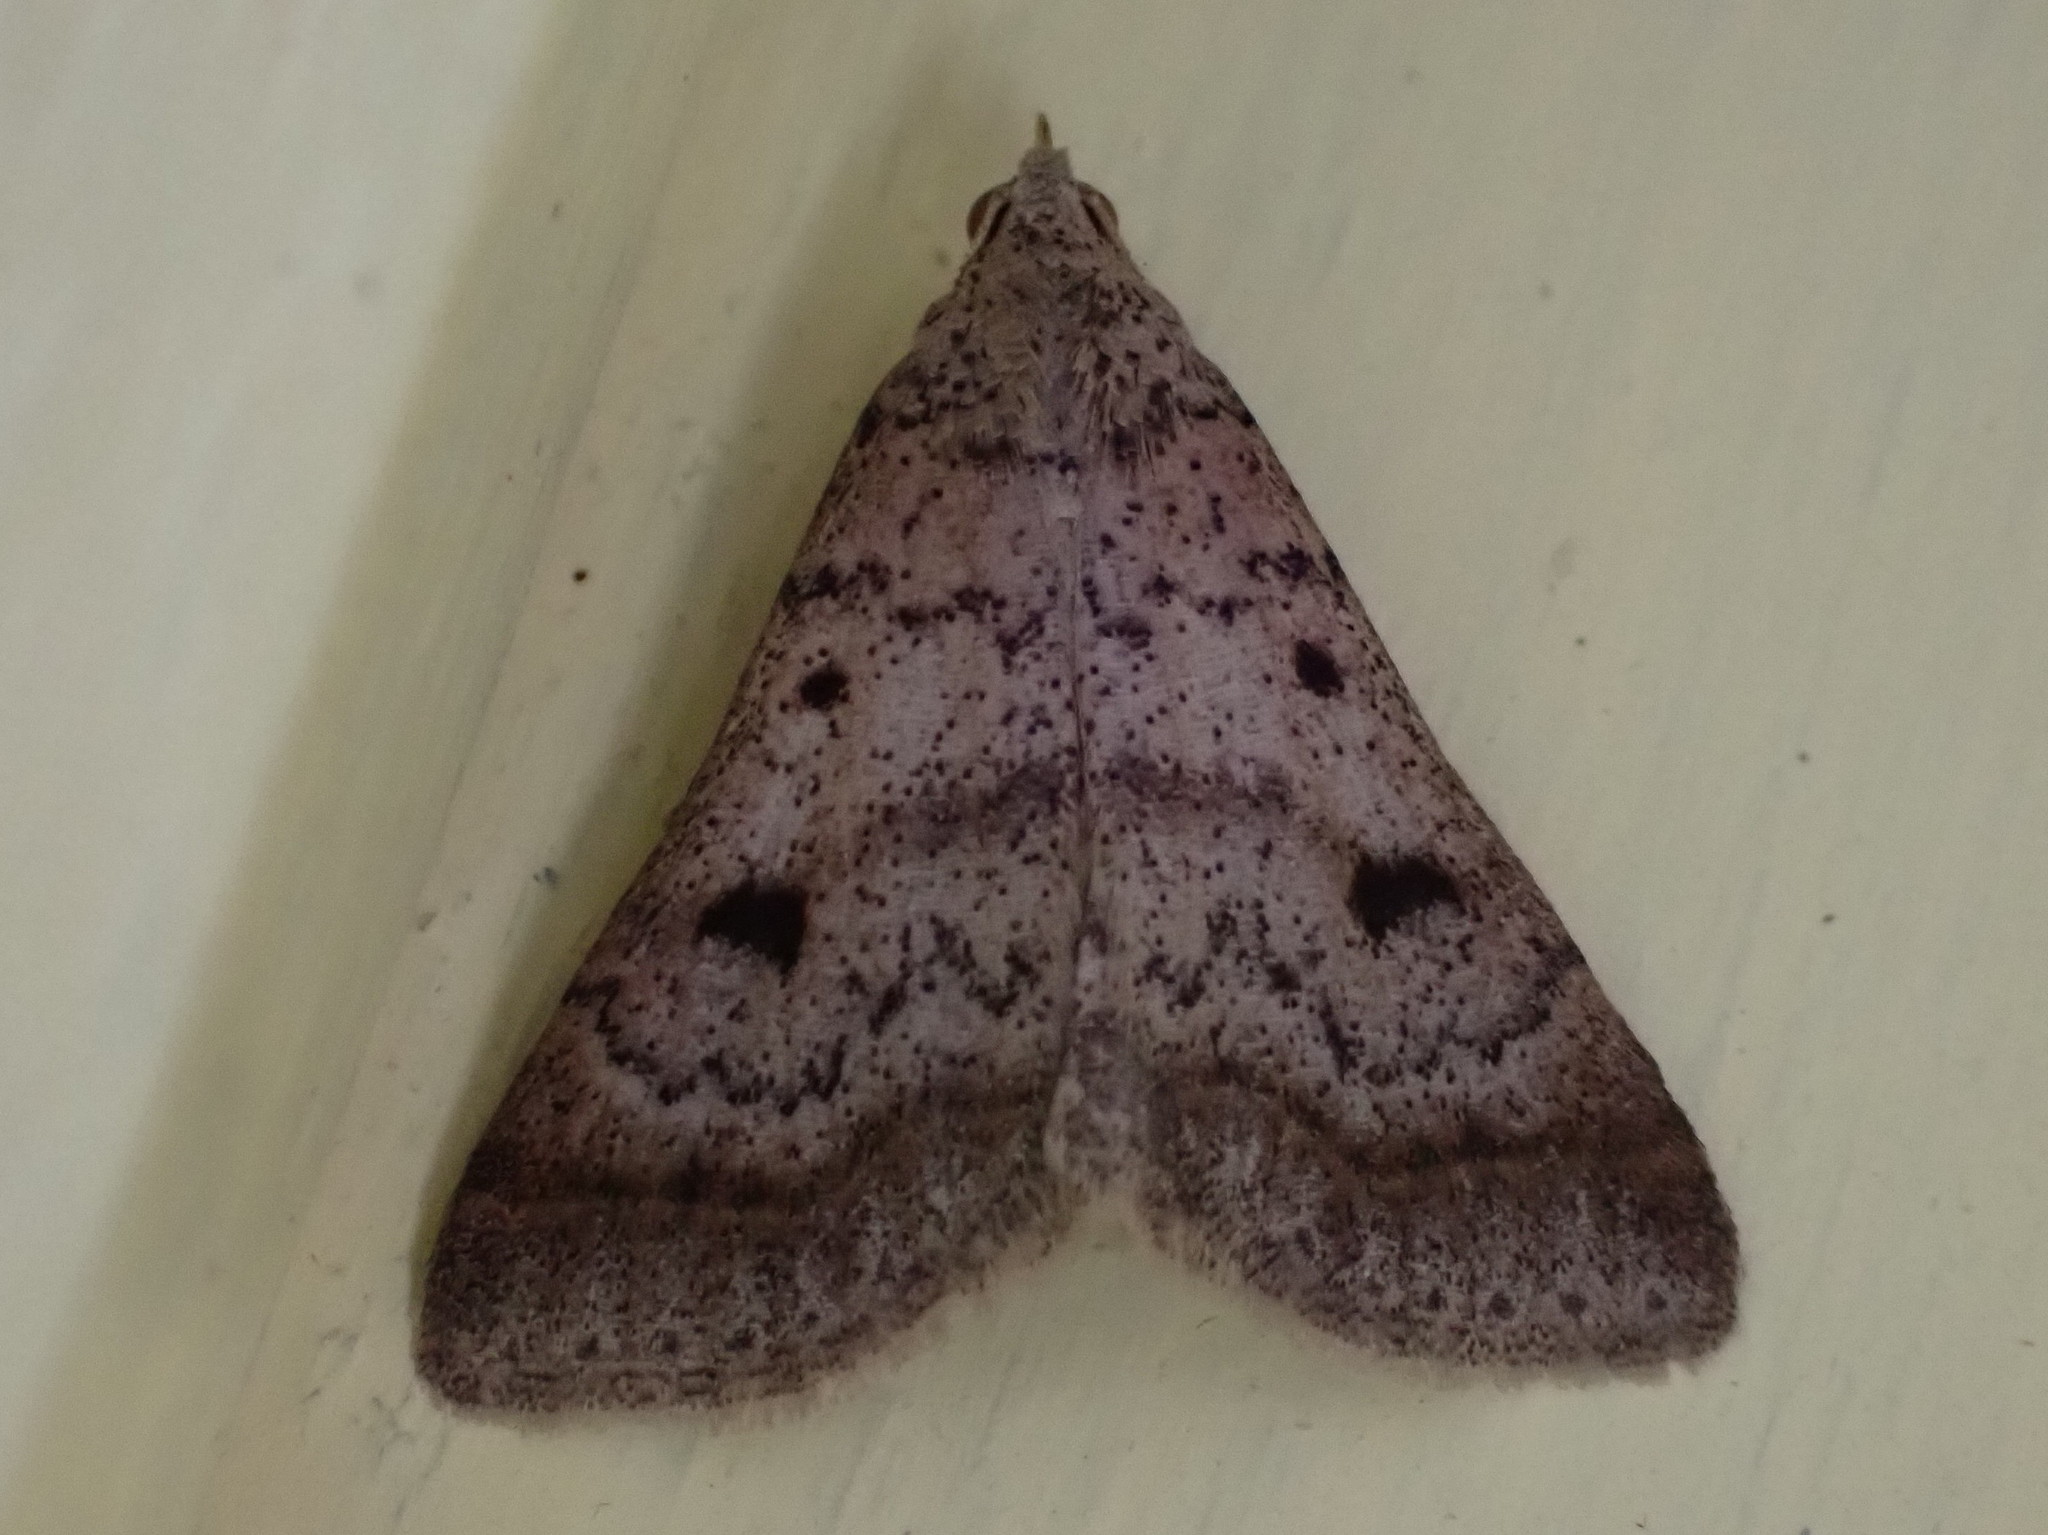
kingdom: Animalia
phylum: Arthropoda
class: Insecta
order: Lepidoptera
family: Erebidae
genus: Bleptina
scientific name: Bleptina caradrinalis
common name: Bent-winged owlet
